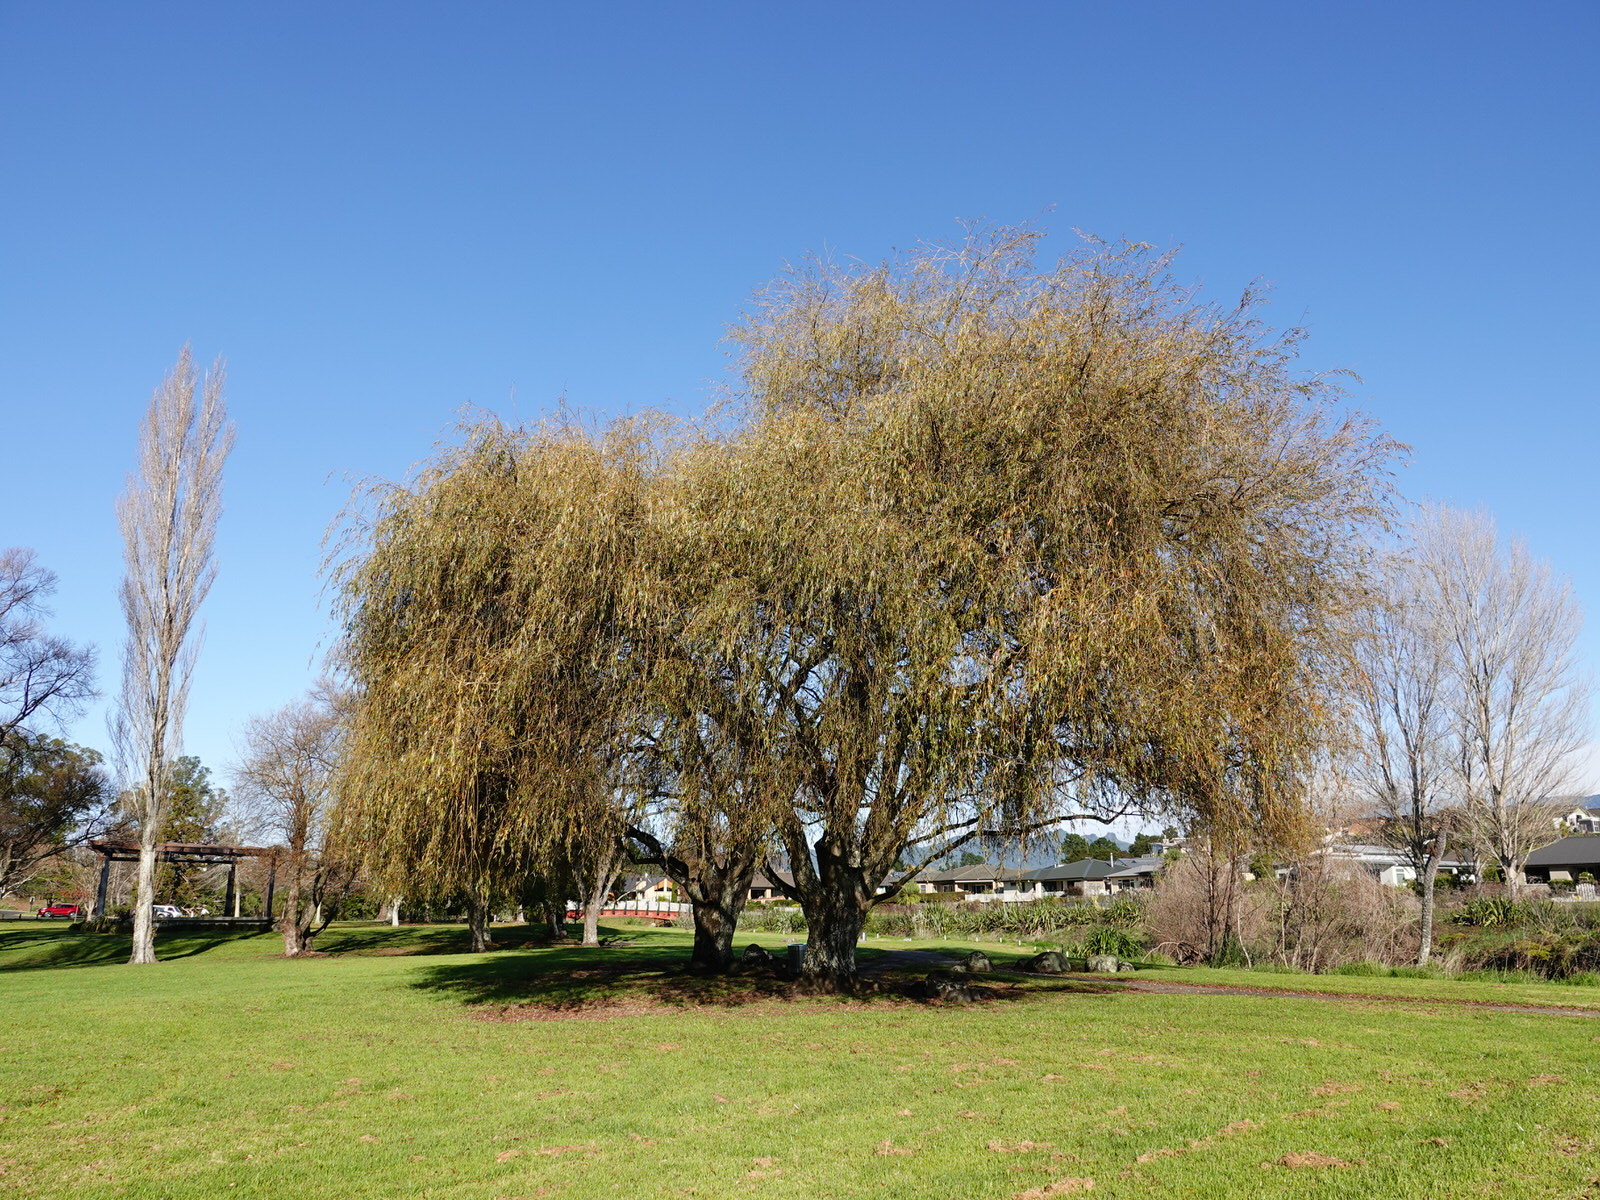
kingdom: Animalia
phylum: Arthropoda
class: Insecta
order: Hemiptera
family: Aphididae
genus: Tuberolachnus
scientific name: Tuberolachnus salignus
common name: Giant willow aphid
